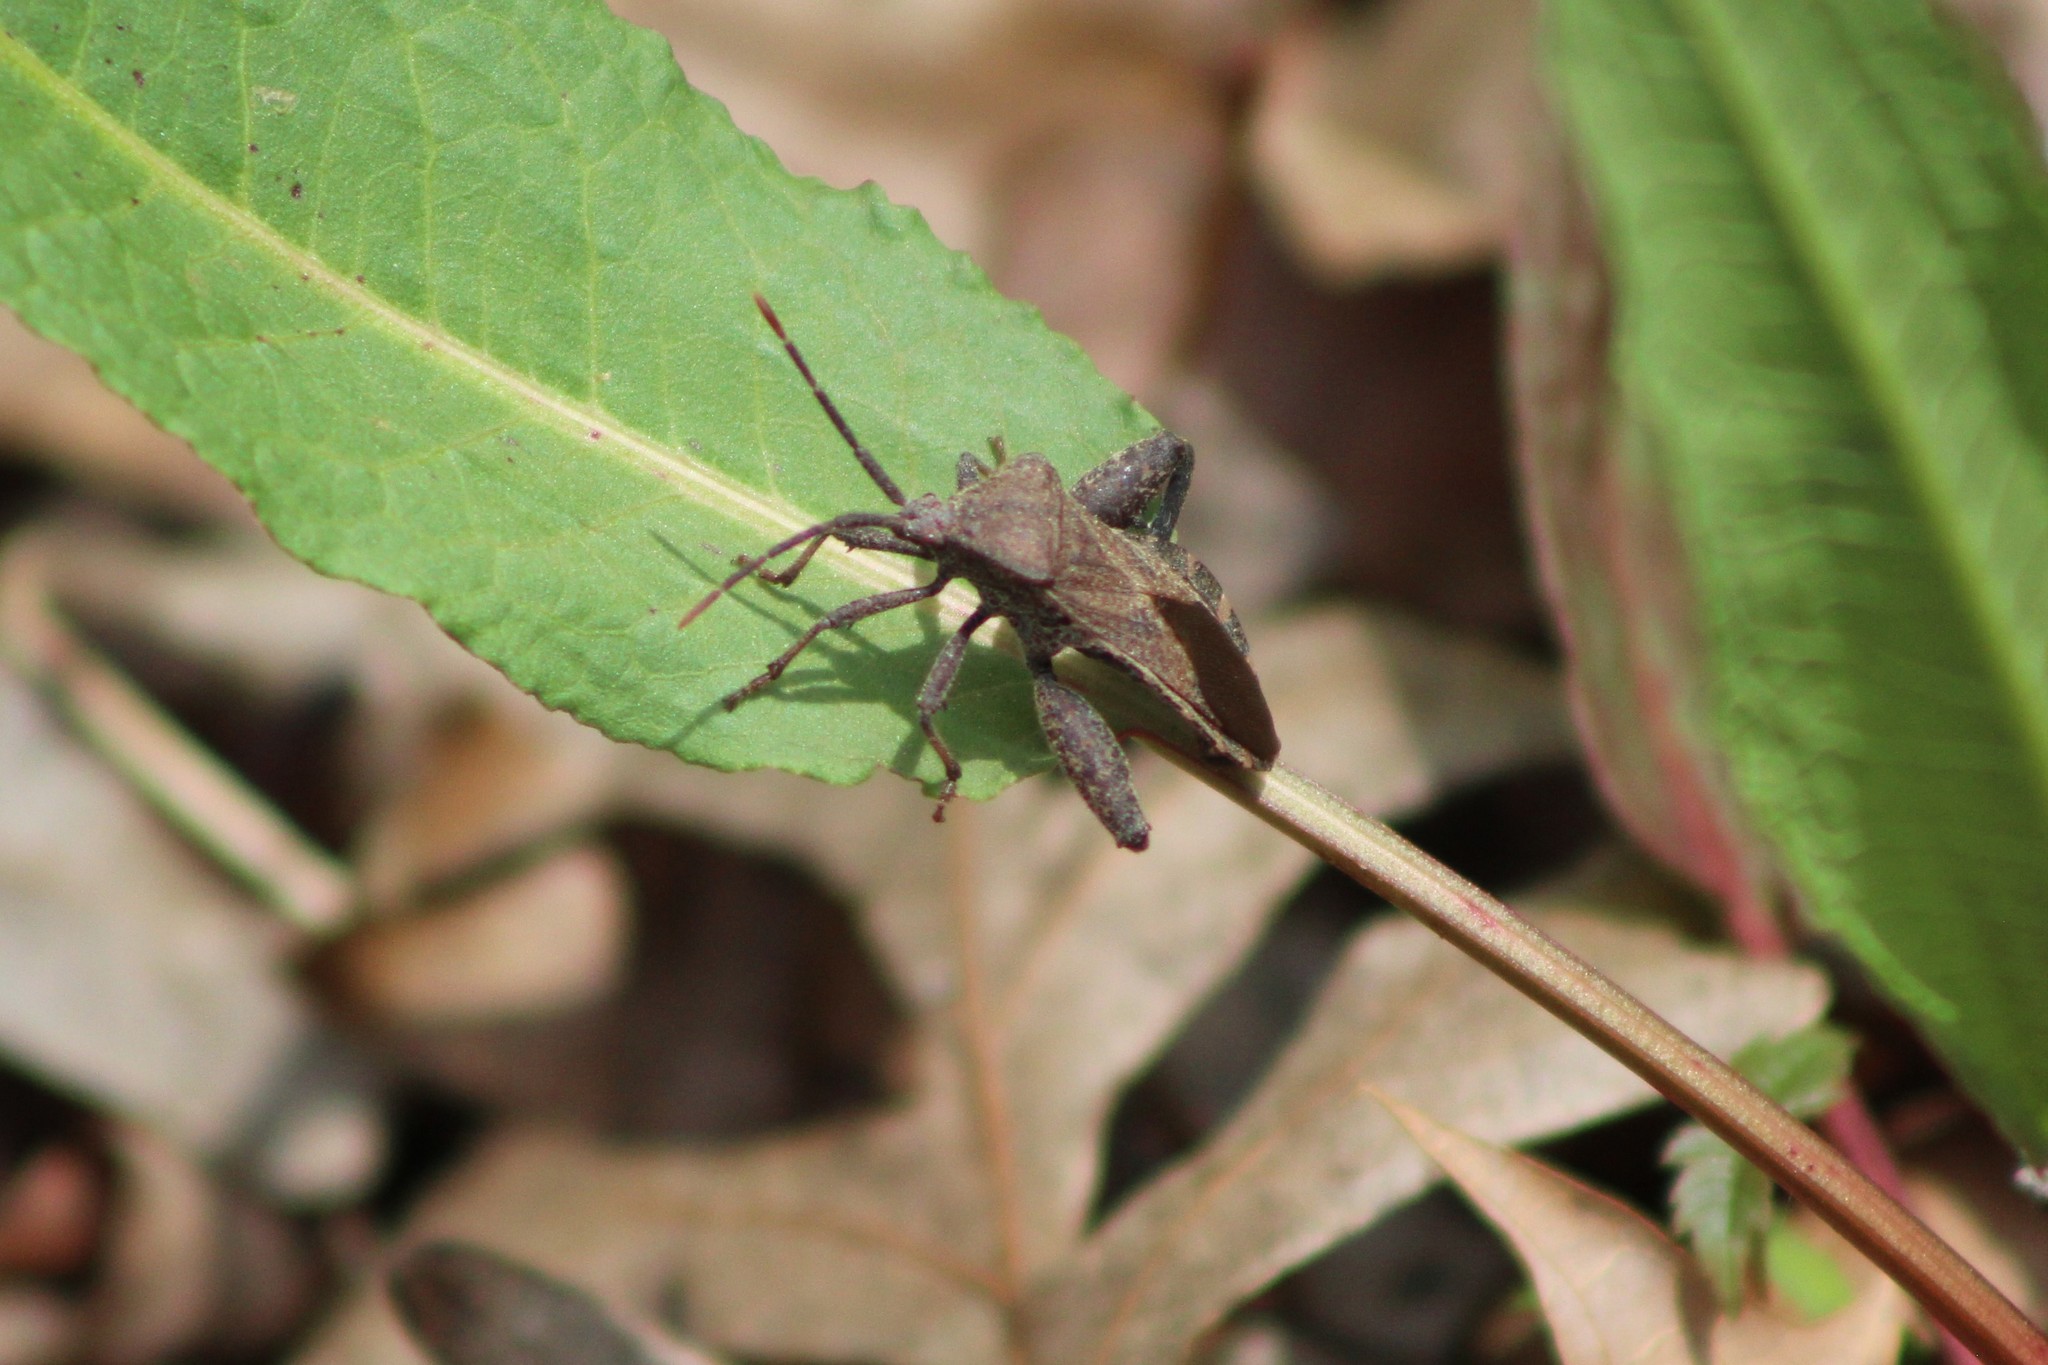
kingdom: Animalia
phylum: Arthropoda
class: Insecta
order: Hemiptera
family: Coreidae
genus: Piezogaster
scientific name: Piezogaster calcarator
